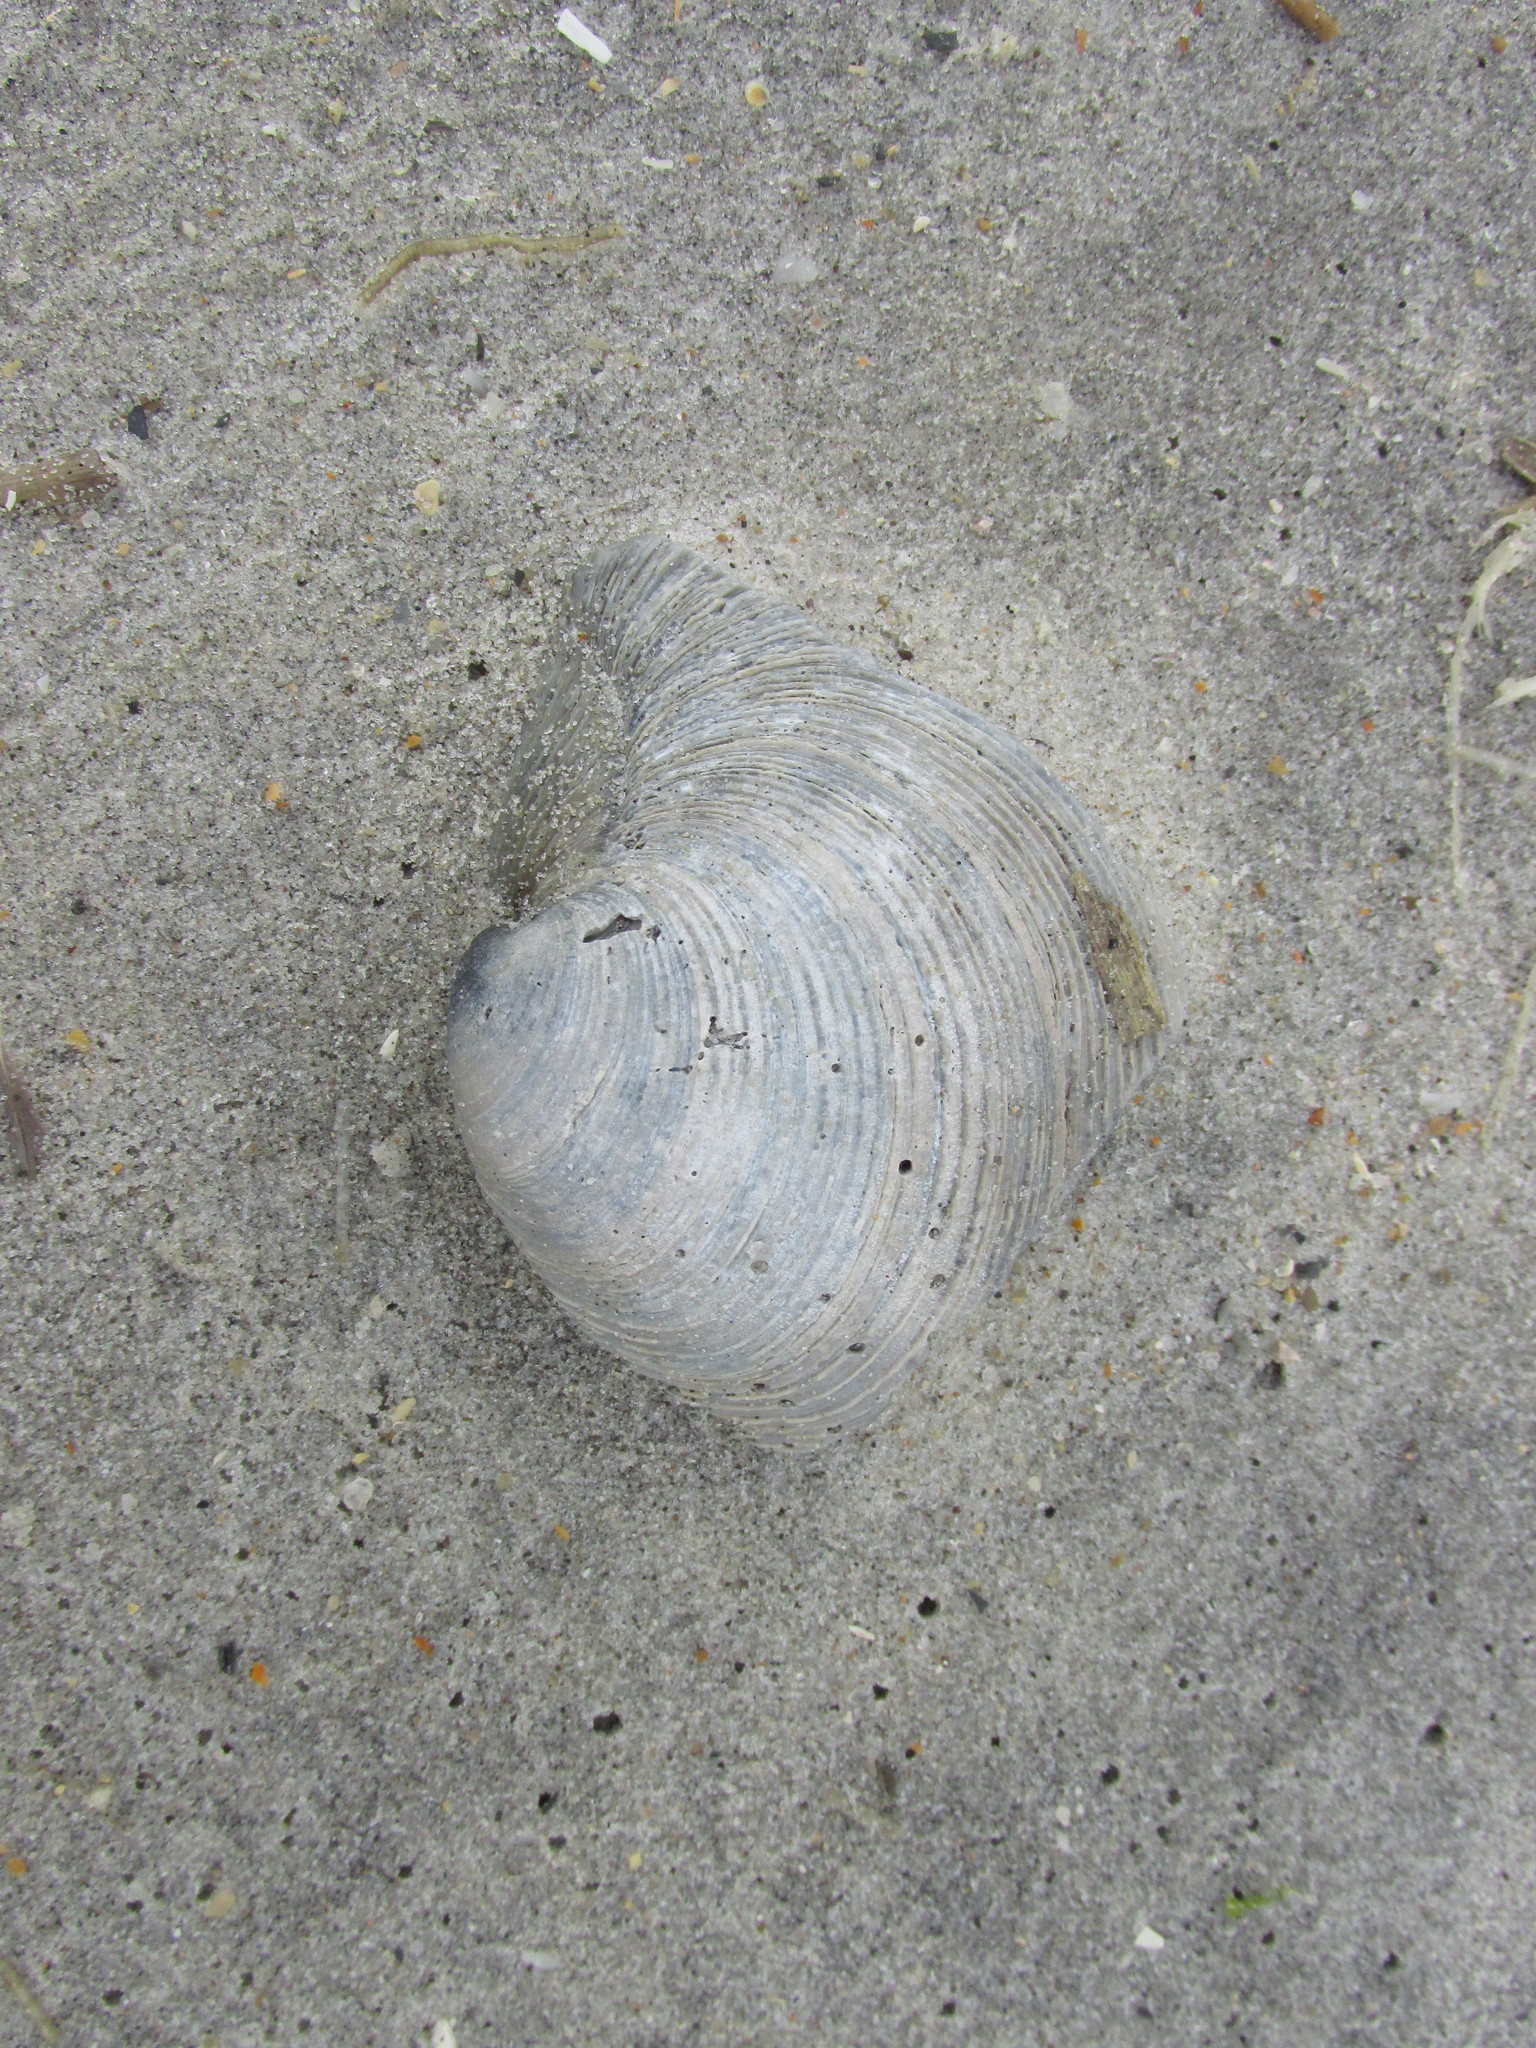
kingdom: Animalia
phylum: Mollusca
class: Bivalvia
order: Venerida
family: Veneridae
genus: Mercenaria
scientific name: Mercenaria mercenaria
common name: American hard-shelled clam
